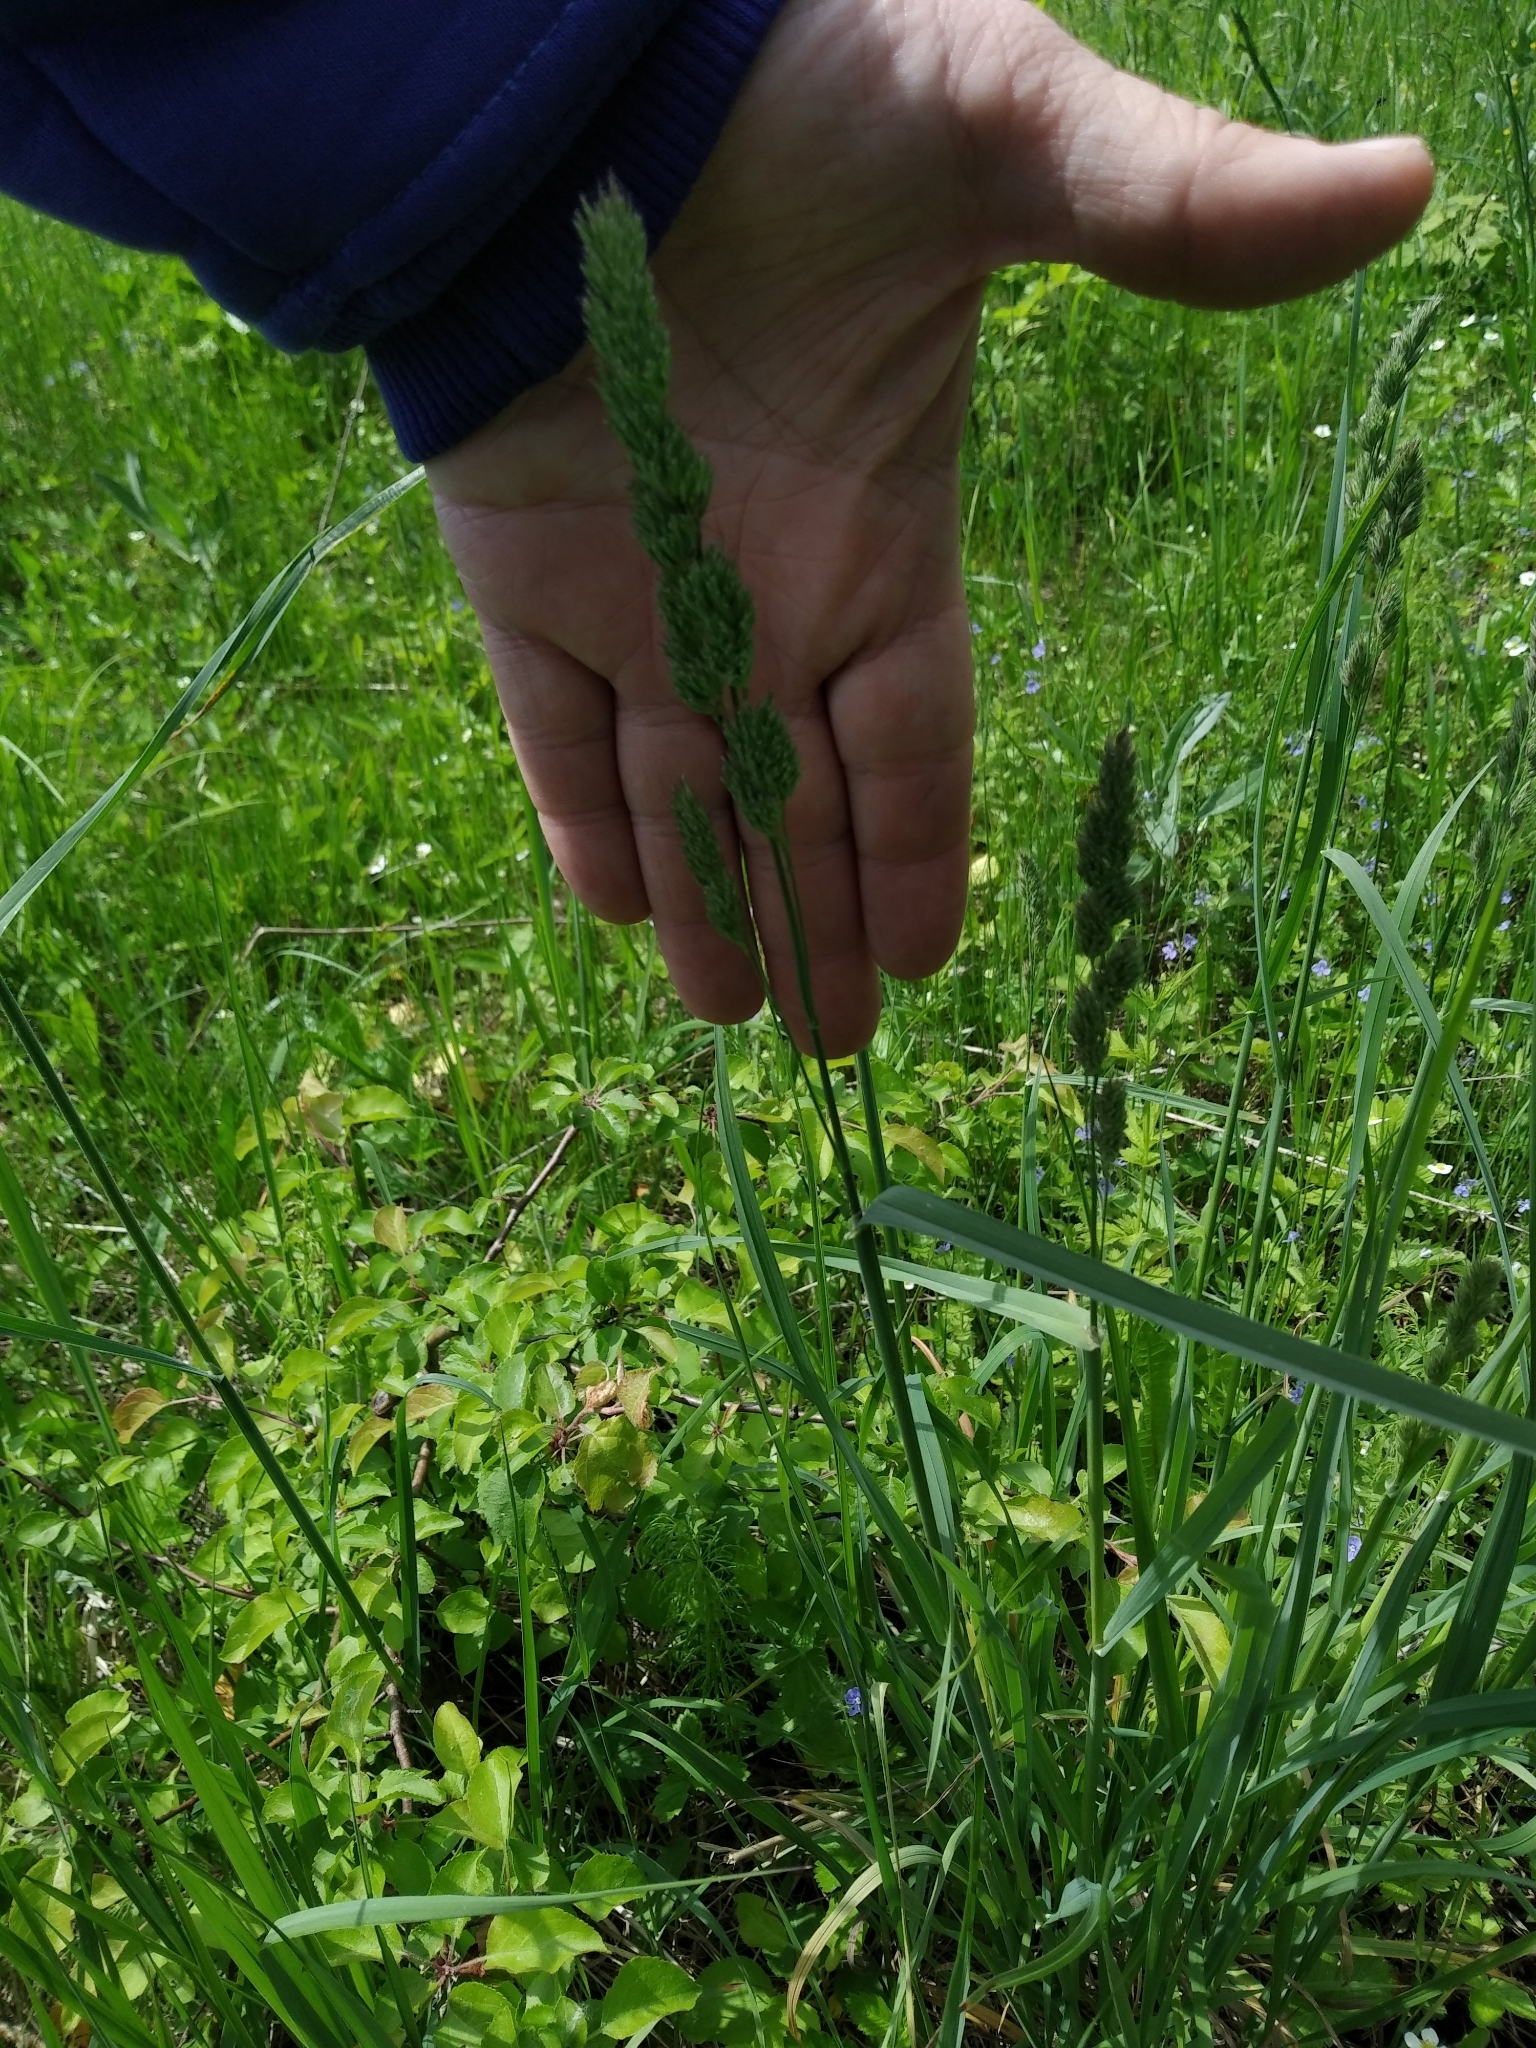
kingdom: Plantae
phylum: Tracheophyta
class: Liliopsida
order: Poales
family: Poaceae
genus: Dactylis
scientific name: Dactylis glomerata
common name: Orchardgrass
